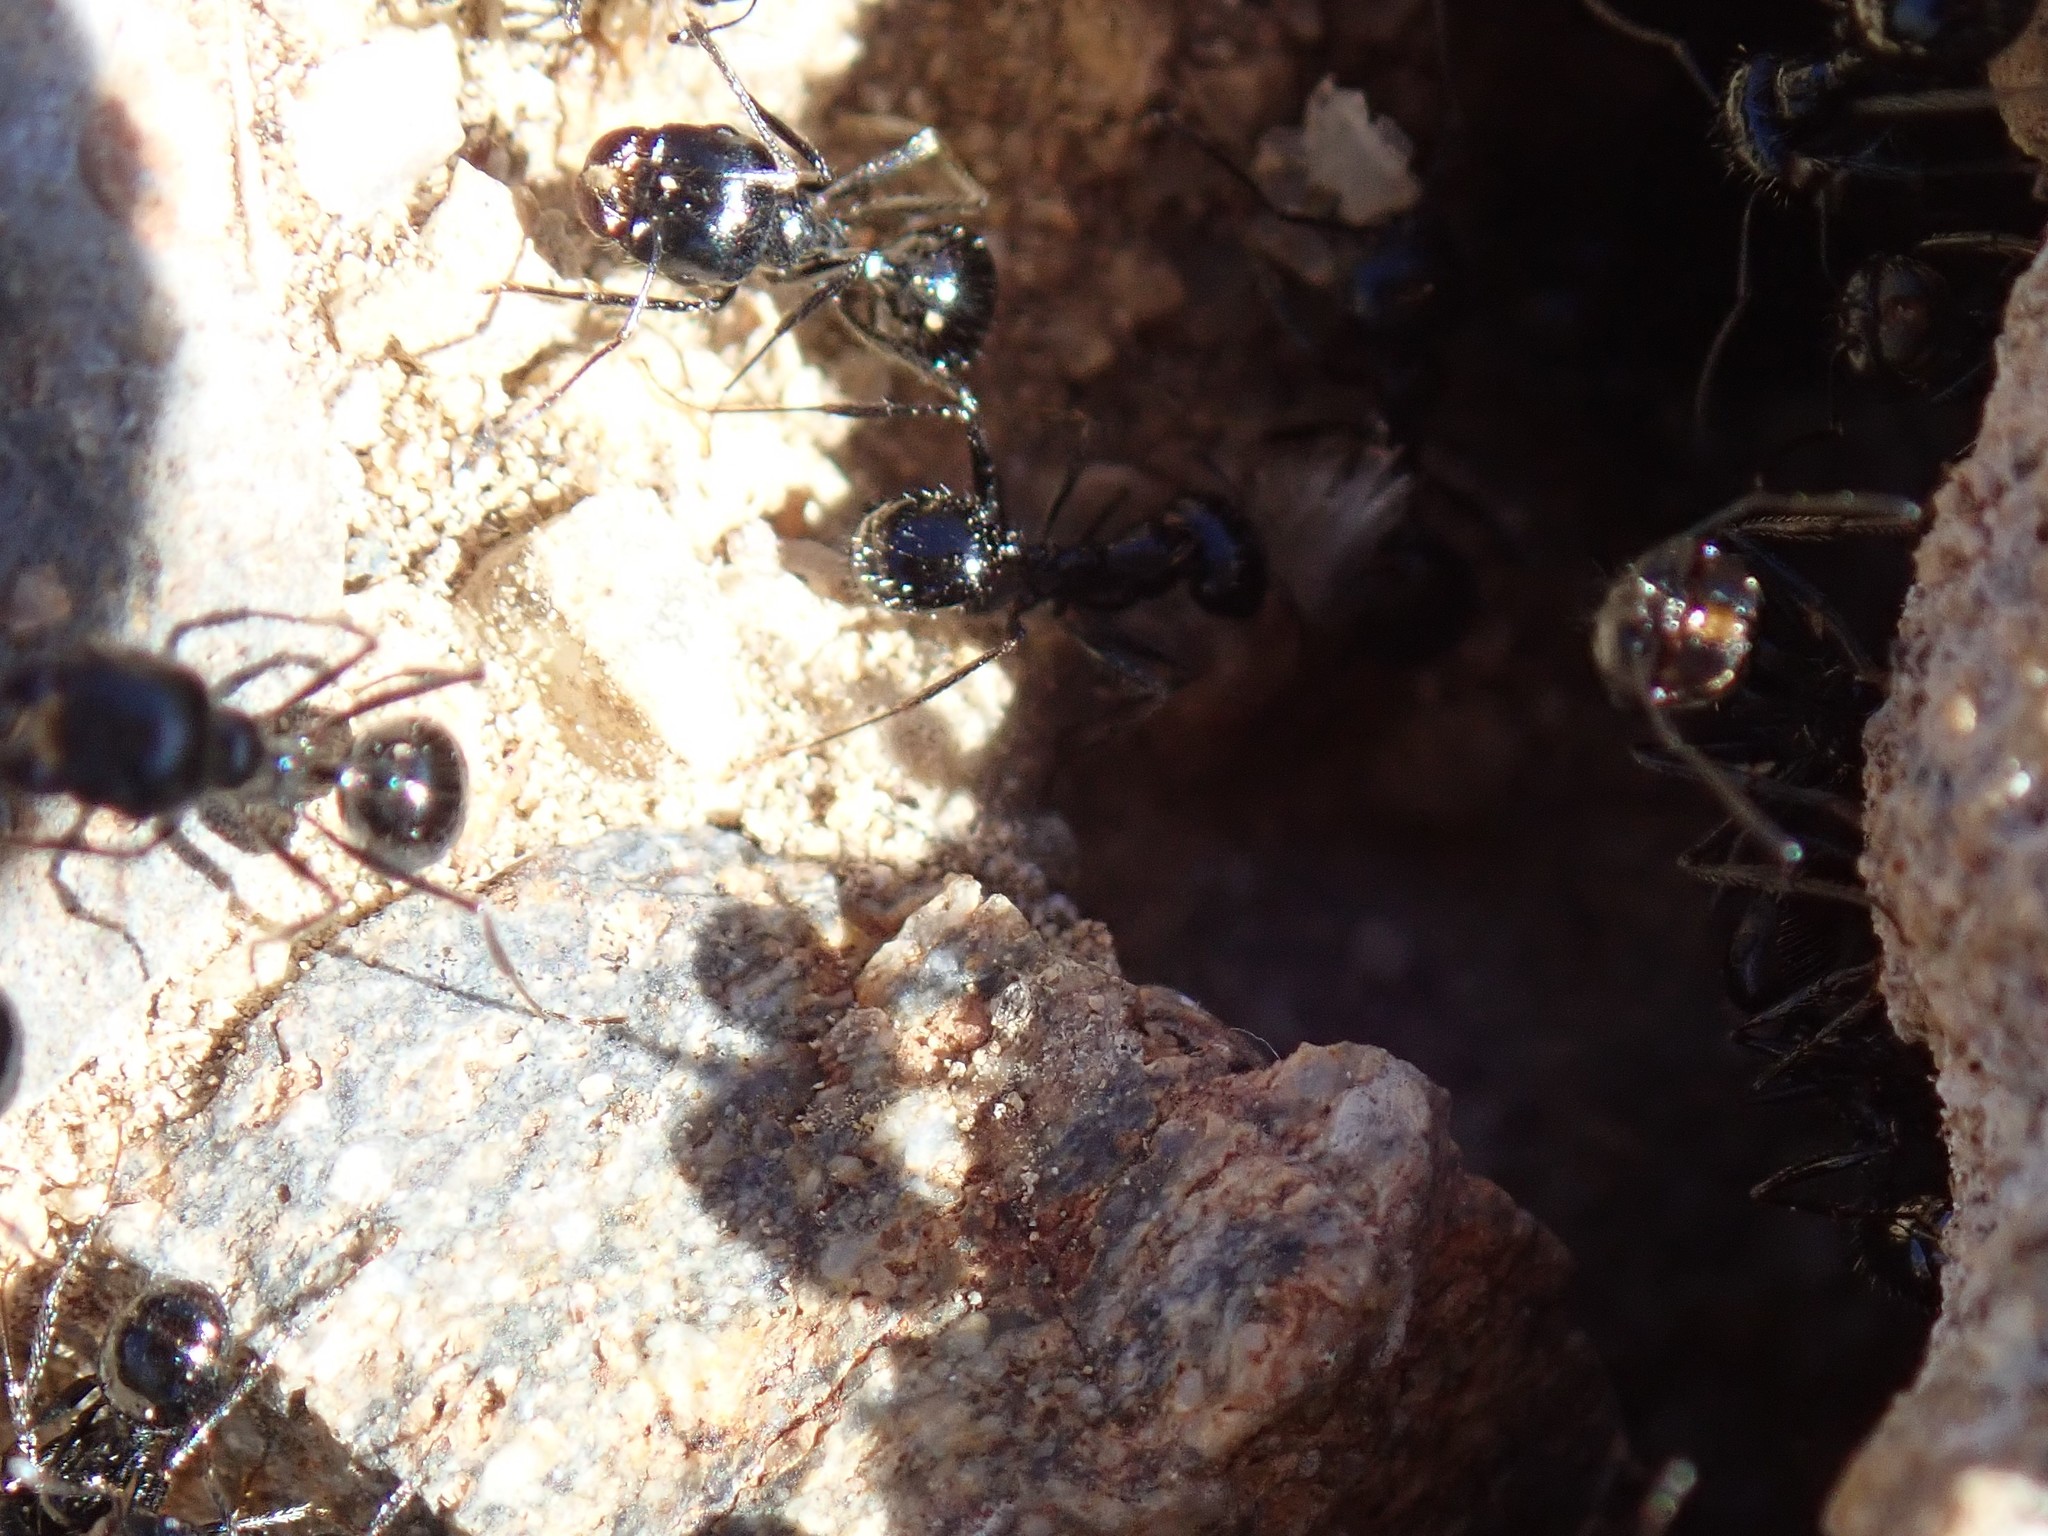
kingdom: Animalia
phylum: Arthropoda
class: Insecta
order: Hymenoptera
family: Formicidae
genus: Messor
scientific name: Messor pergandei
